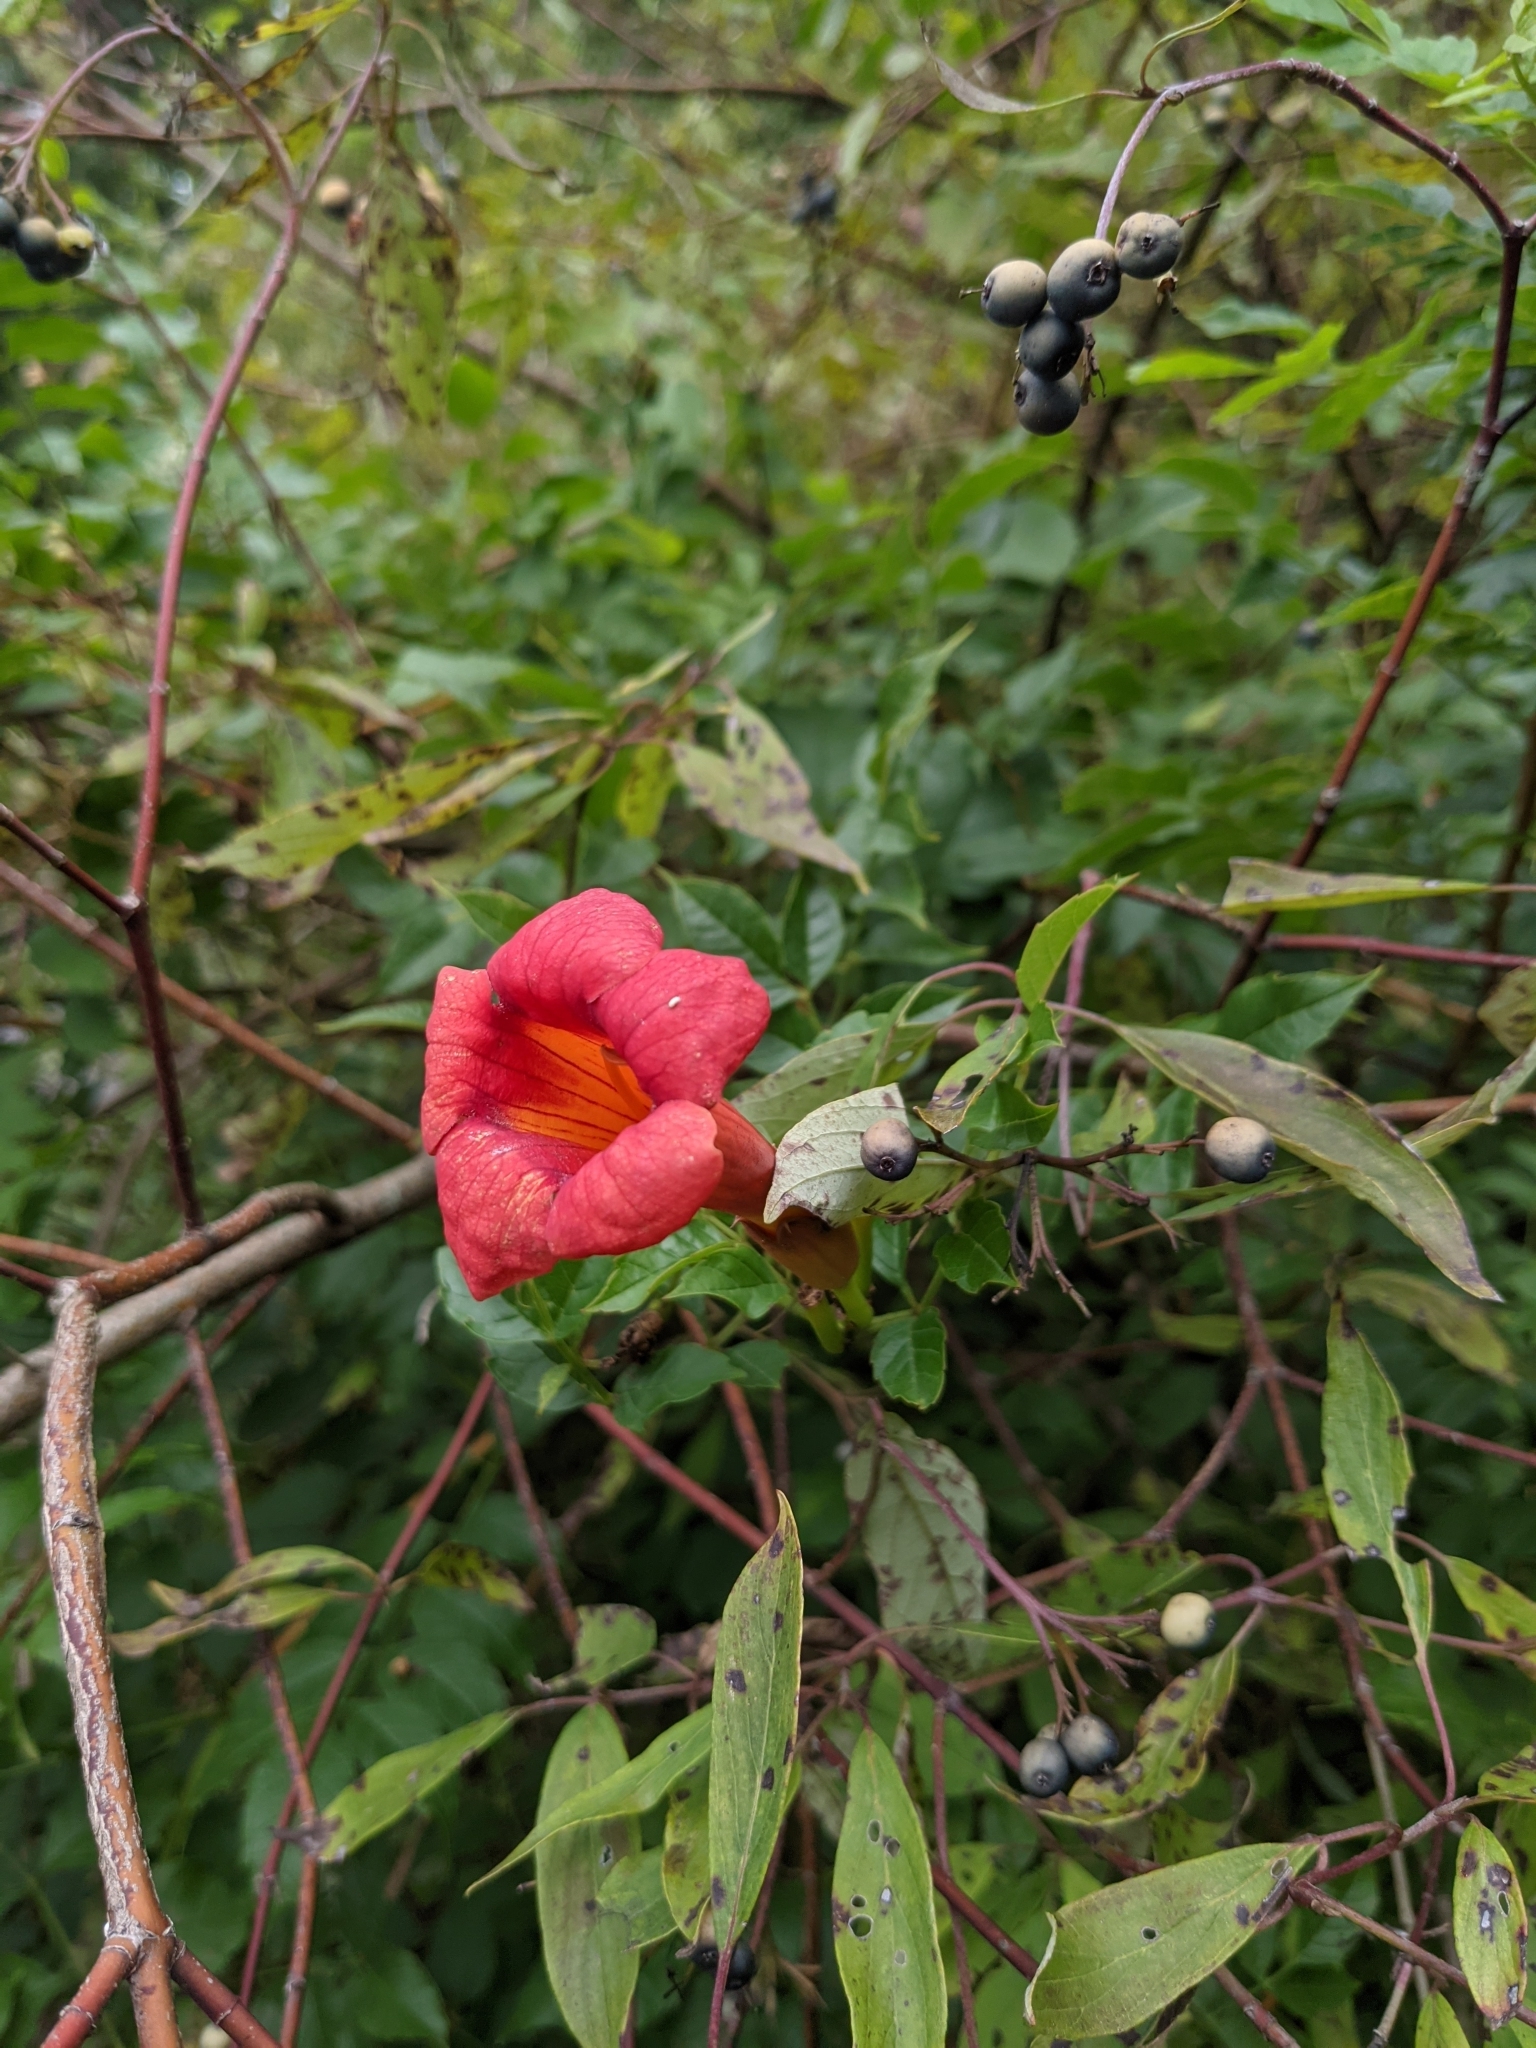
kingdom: Plantae
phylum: Tracheophyta
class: Magnoliopsida
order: Lamiales
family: Bignoniaceae
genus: Campsis
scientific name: Campsis radicans
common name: Trumpet-creeper
